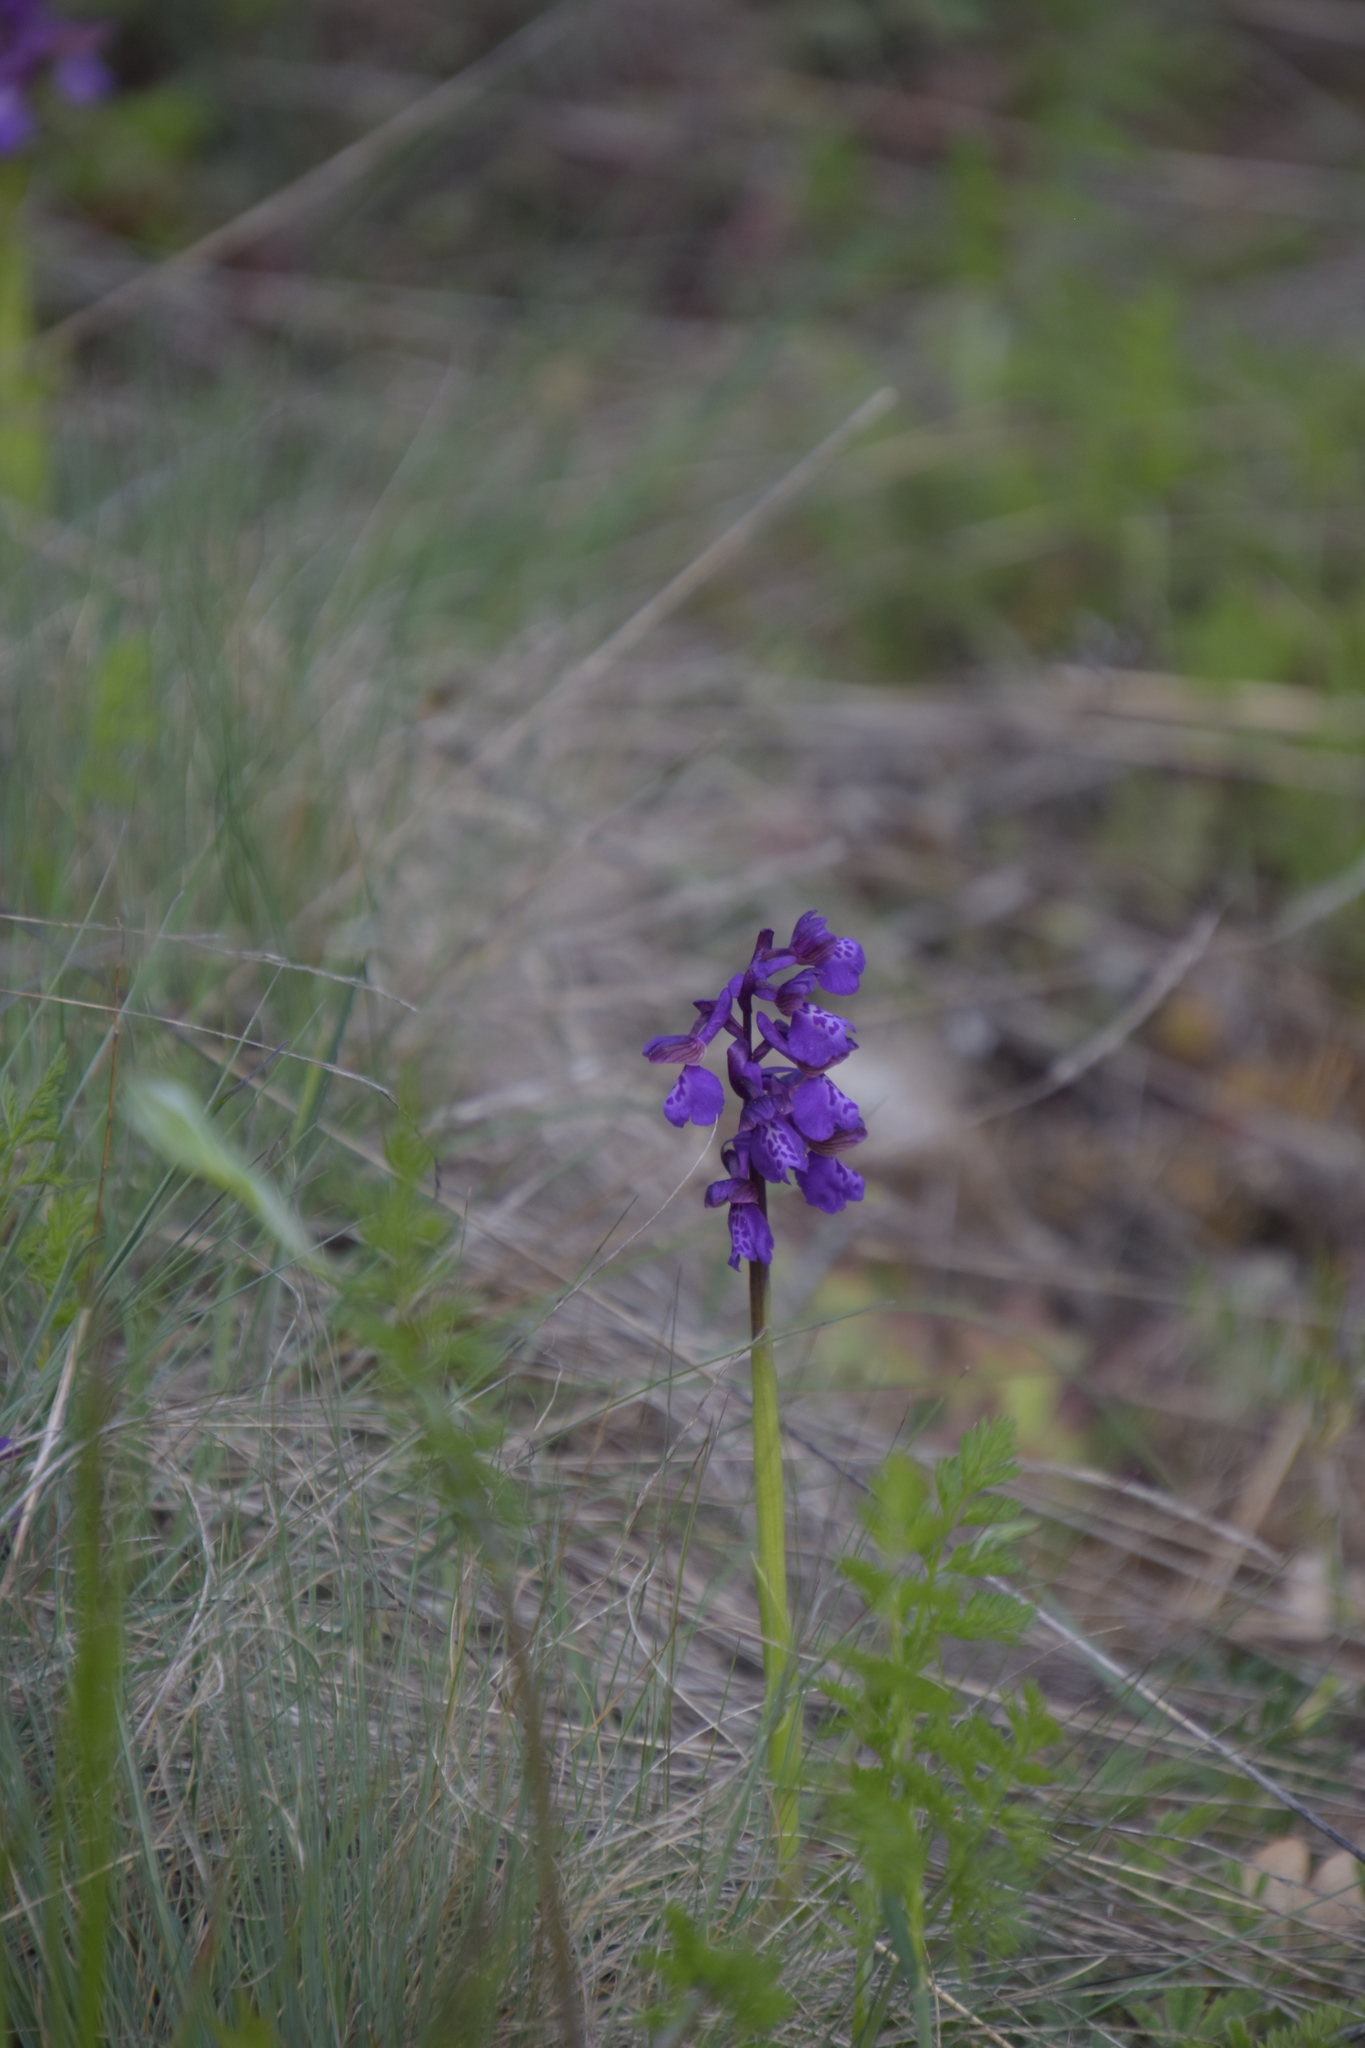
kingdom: Plantae
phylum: Tracheophyta
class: Liliopsida
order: Asparagales
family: Orchidaceae
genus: Anacamptis
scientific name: Anacamptis morio
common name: Green-winged orchid
